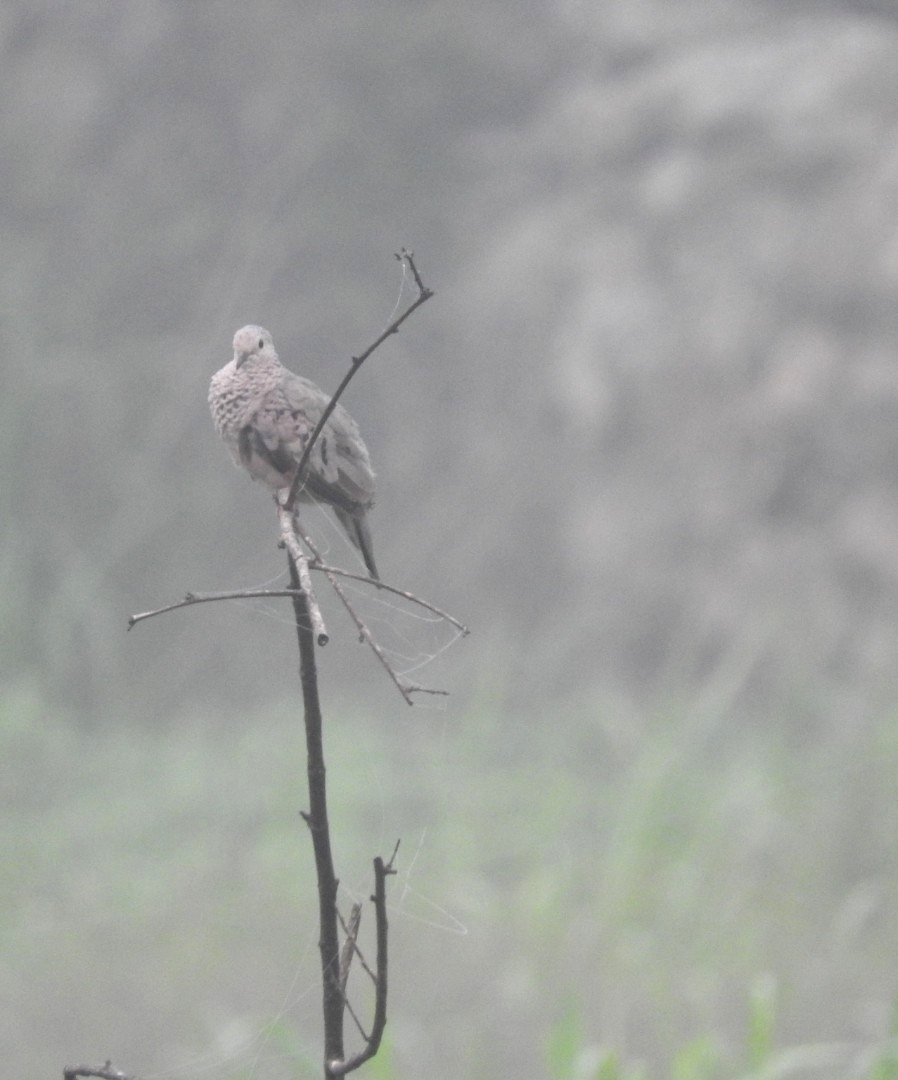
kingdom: Animalia
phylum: Chordata
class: Aves
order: Columbiformes
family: Columbidae
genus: Columbina
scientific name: Columbina passerina
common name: Common ground-dove
